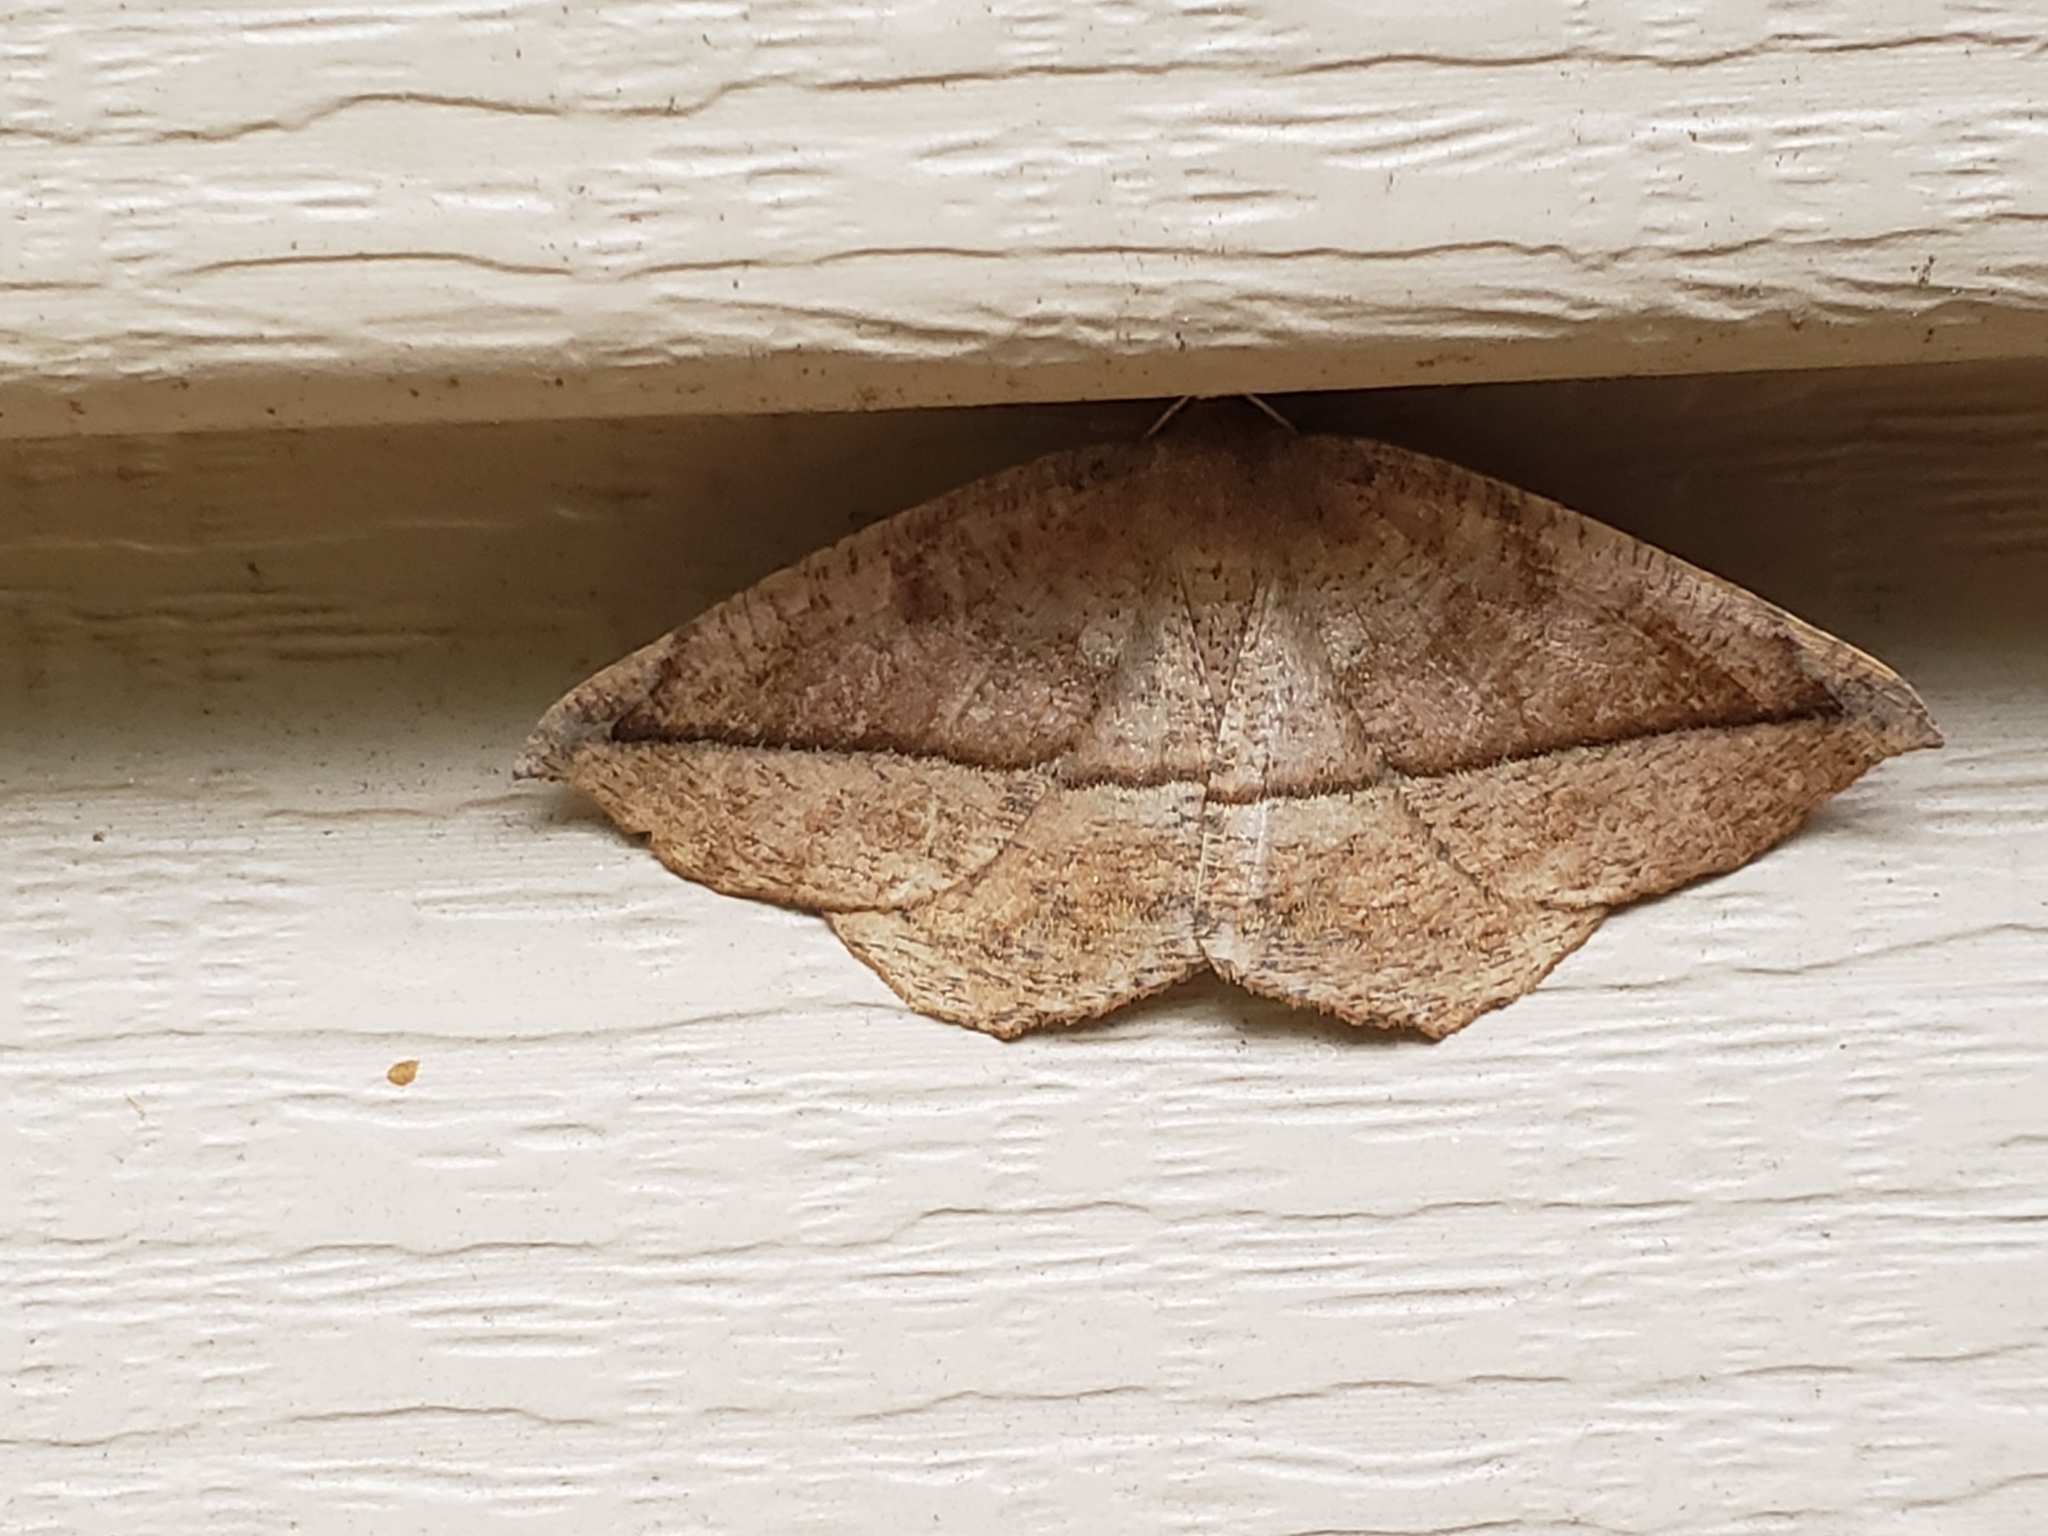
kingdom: Animalia
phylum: Arthropoda
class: Insecta
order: Lepidoptera
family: Geometridae
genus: Eutrapela
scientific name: Eutrapela clemataria
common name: Curved-toothed geometer
